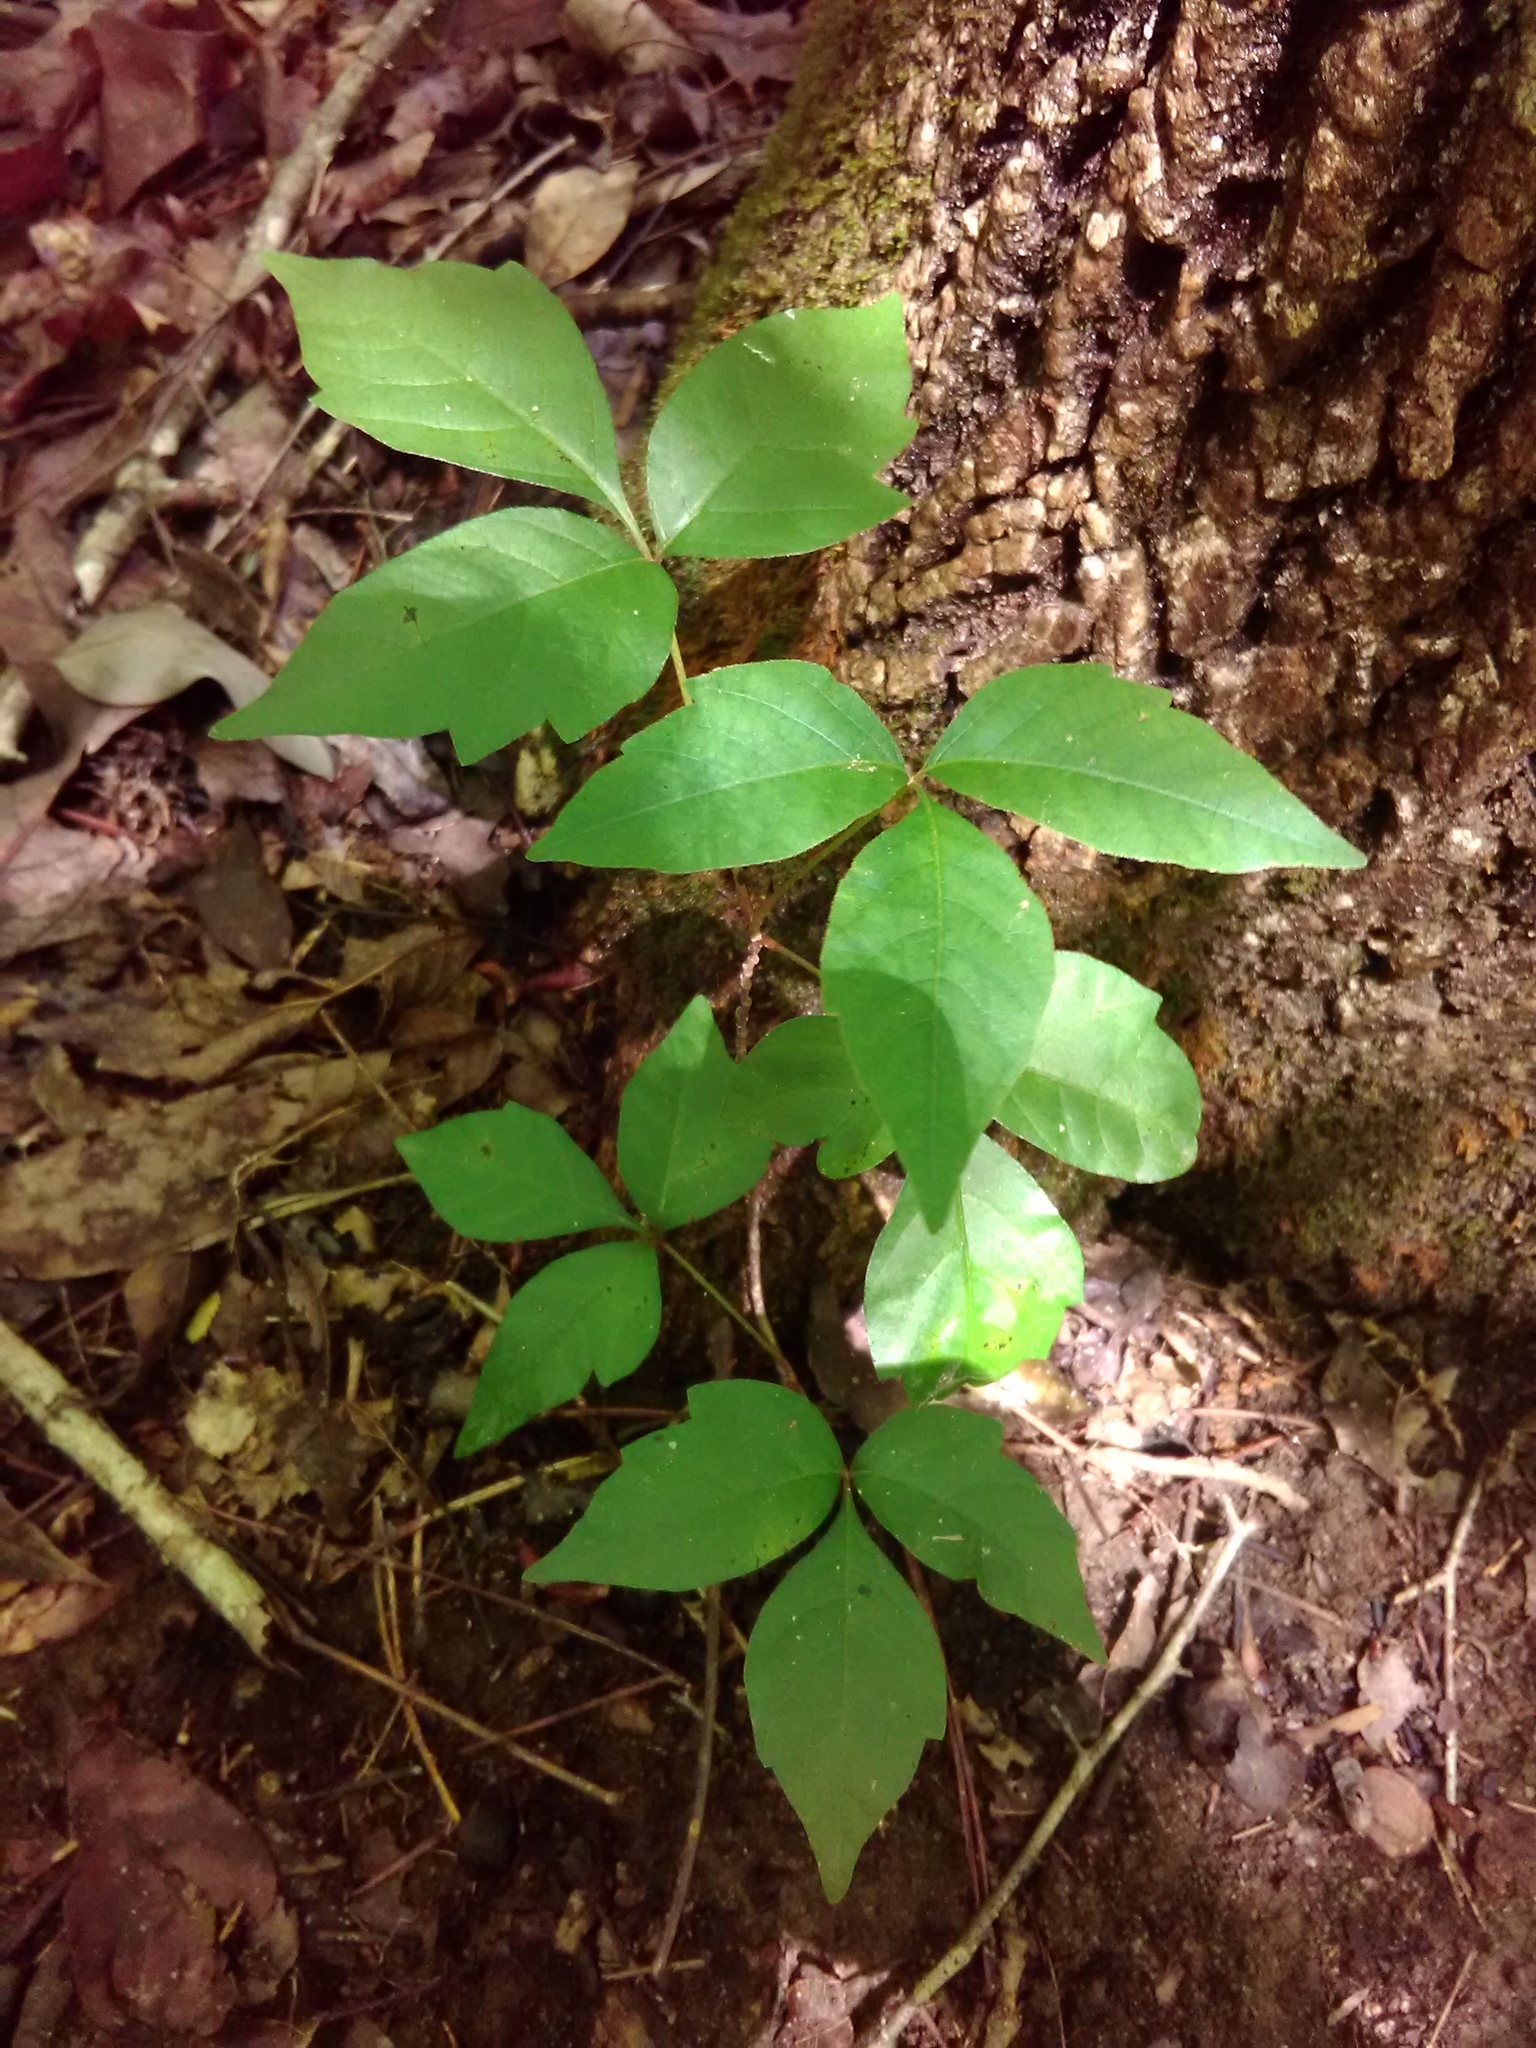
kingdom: Plantae
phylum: Tracheophyta
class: Magnoliopsida
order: Sapindales
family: Anacardiaceae
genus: Toxicodendron
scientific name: Toxicodendron radicans
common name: Poison ivy
